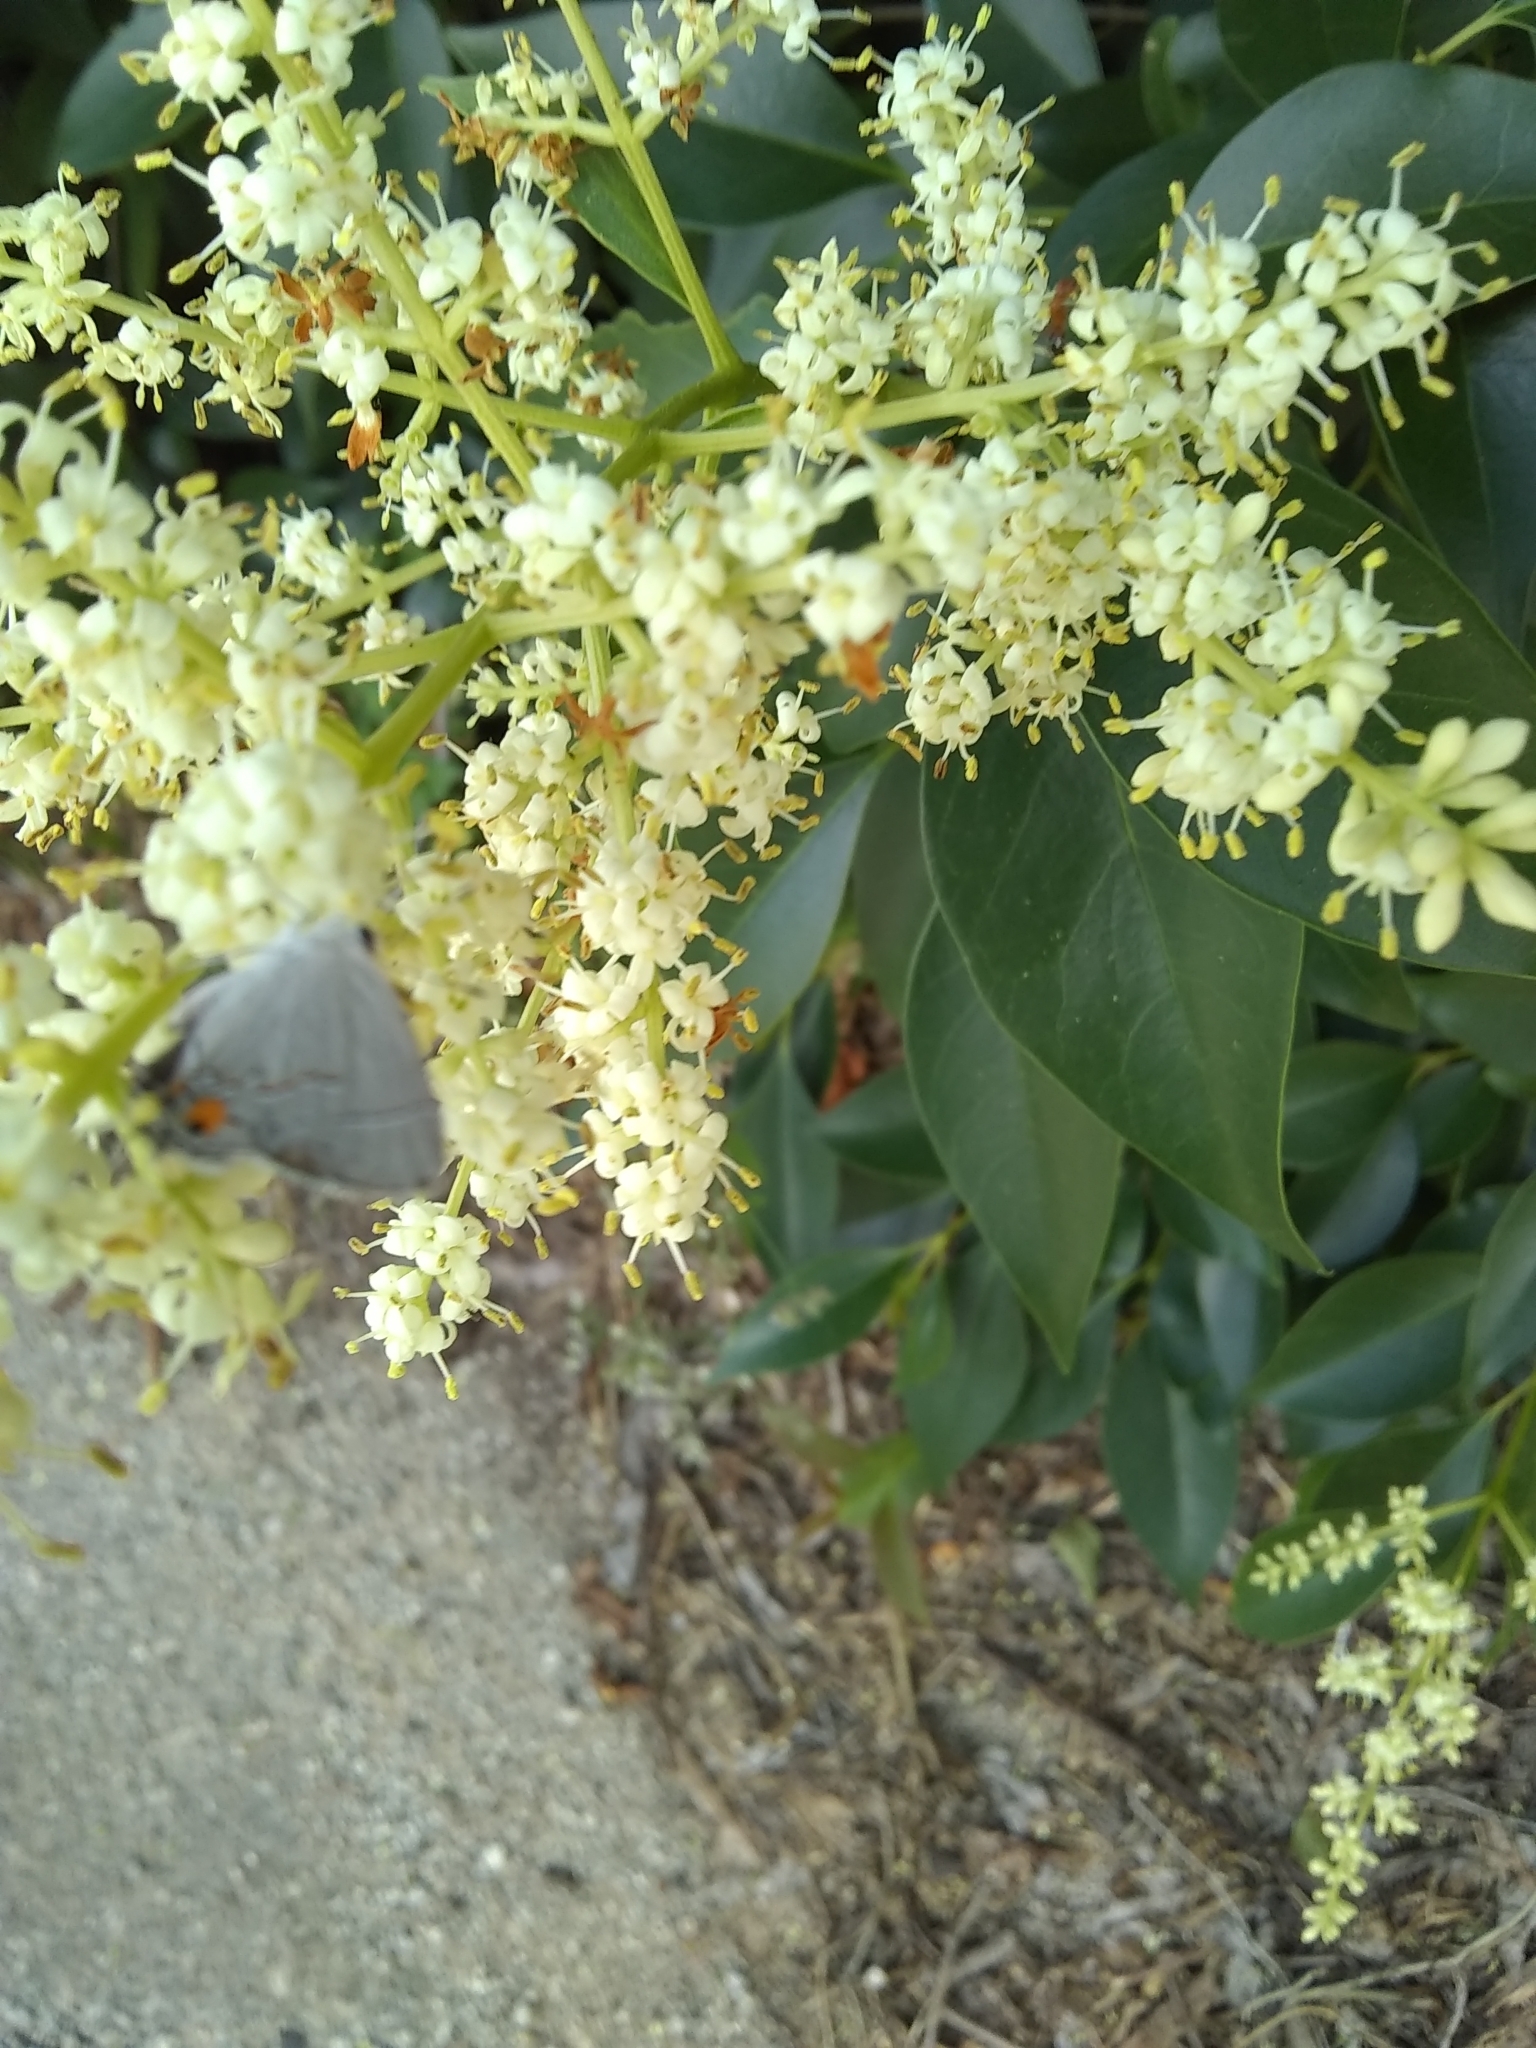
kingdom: Animalia
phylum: Arthropoda
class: Insecta
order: Lepidoptera
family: Lycaenidae
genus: Strymon
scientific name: Strymon melinus
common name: Gray hairstreak
